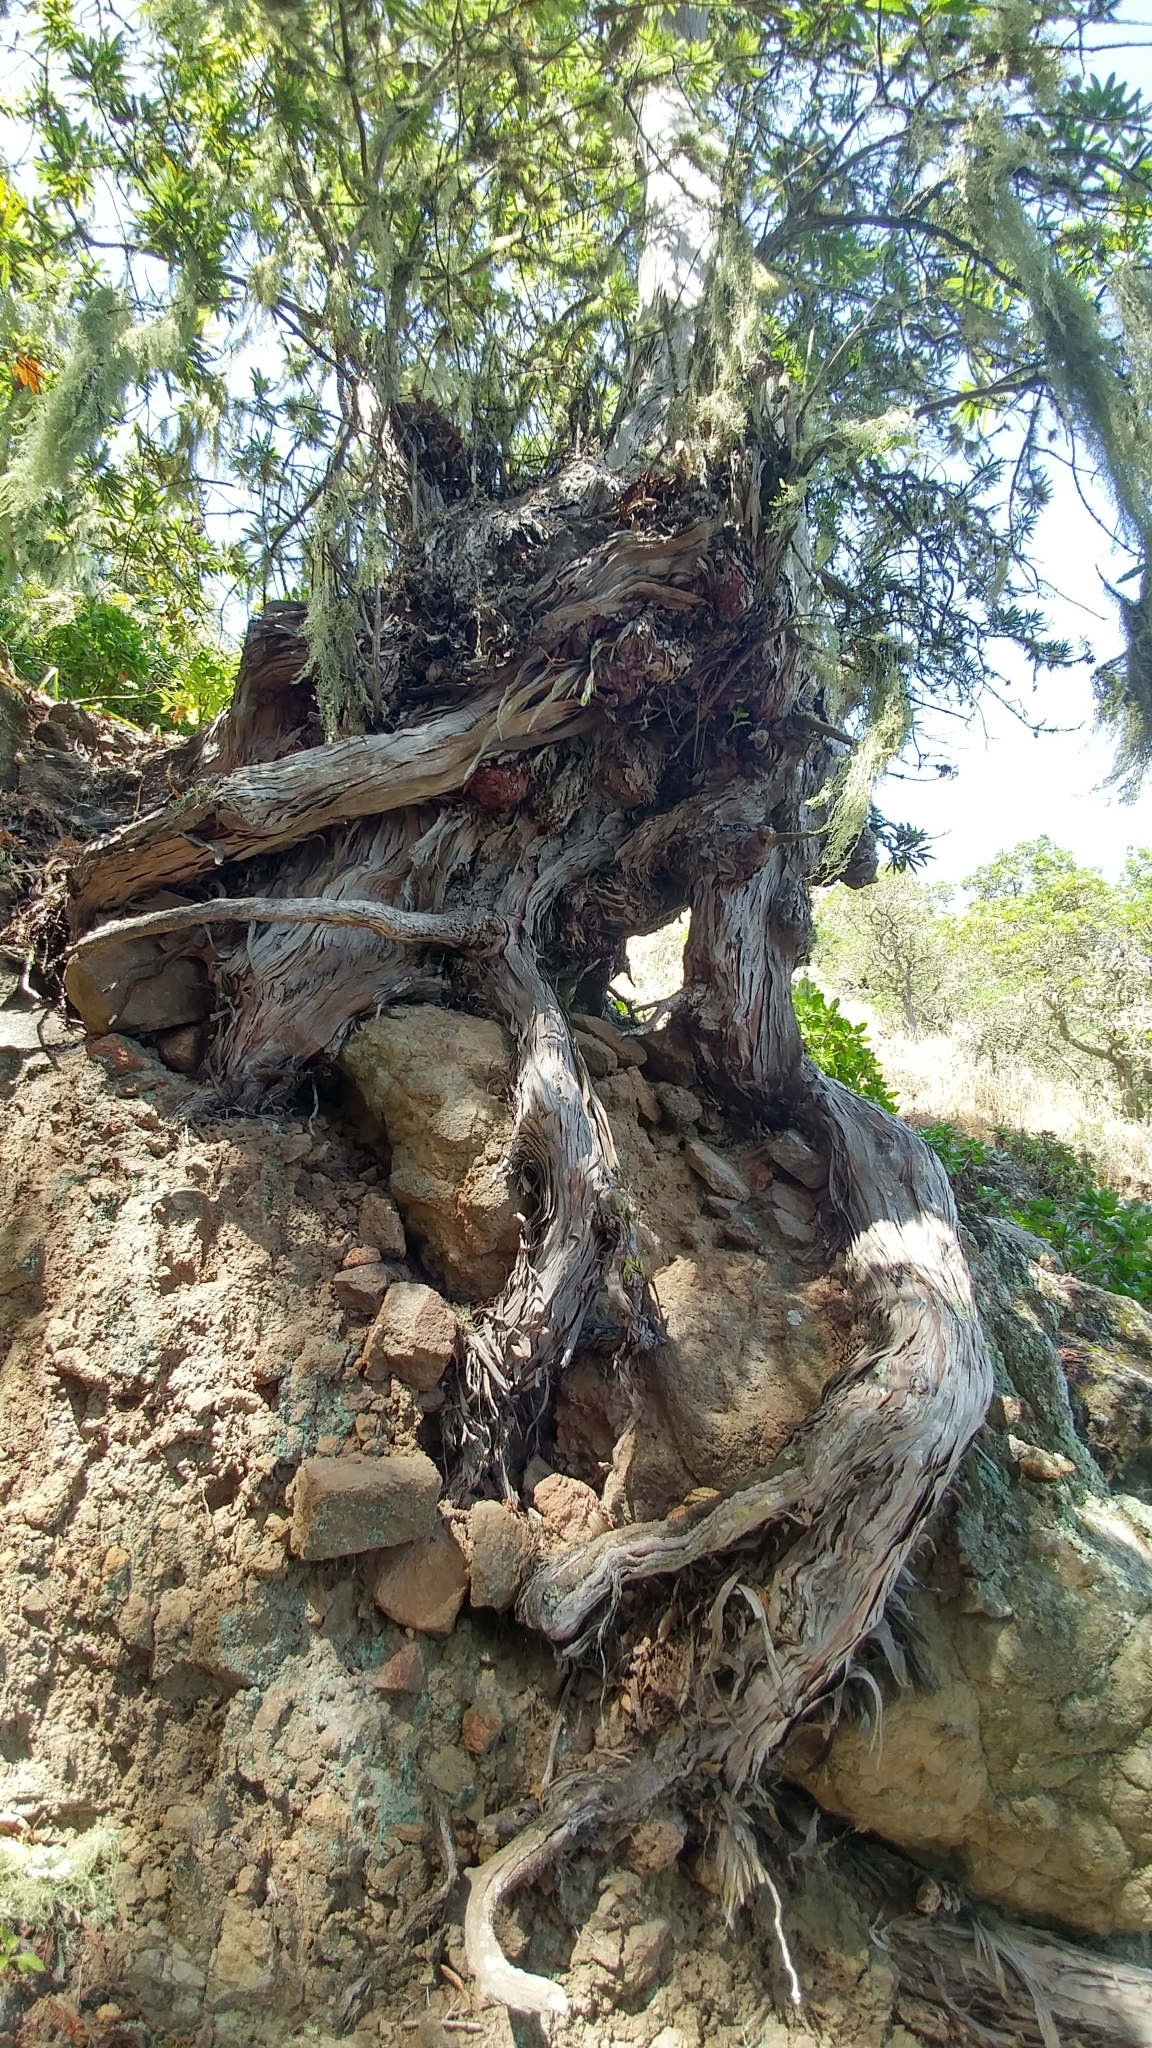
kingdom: Plantae
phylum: Tracheophyta
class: Magnoliopsida
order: Rosales
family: Rosaceae
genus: Lyonothamnus
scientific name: Lyonothamnus floribundus
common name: Catalina ironwood
